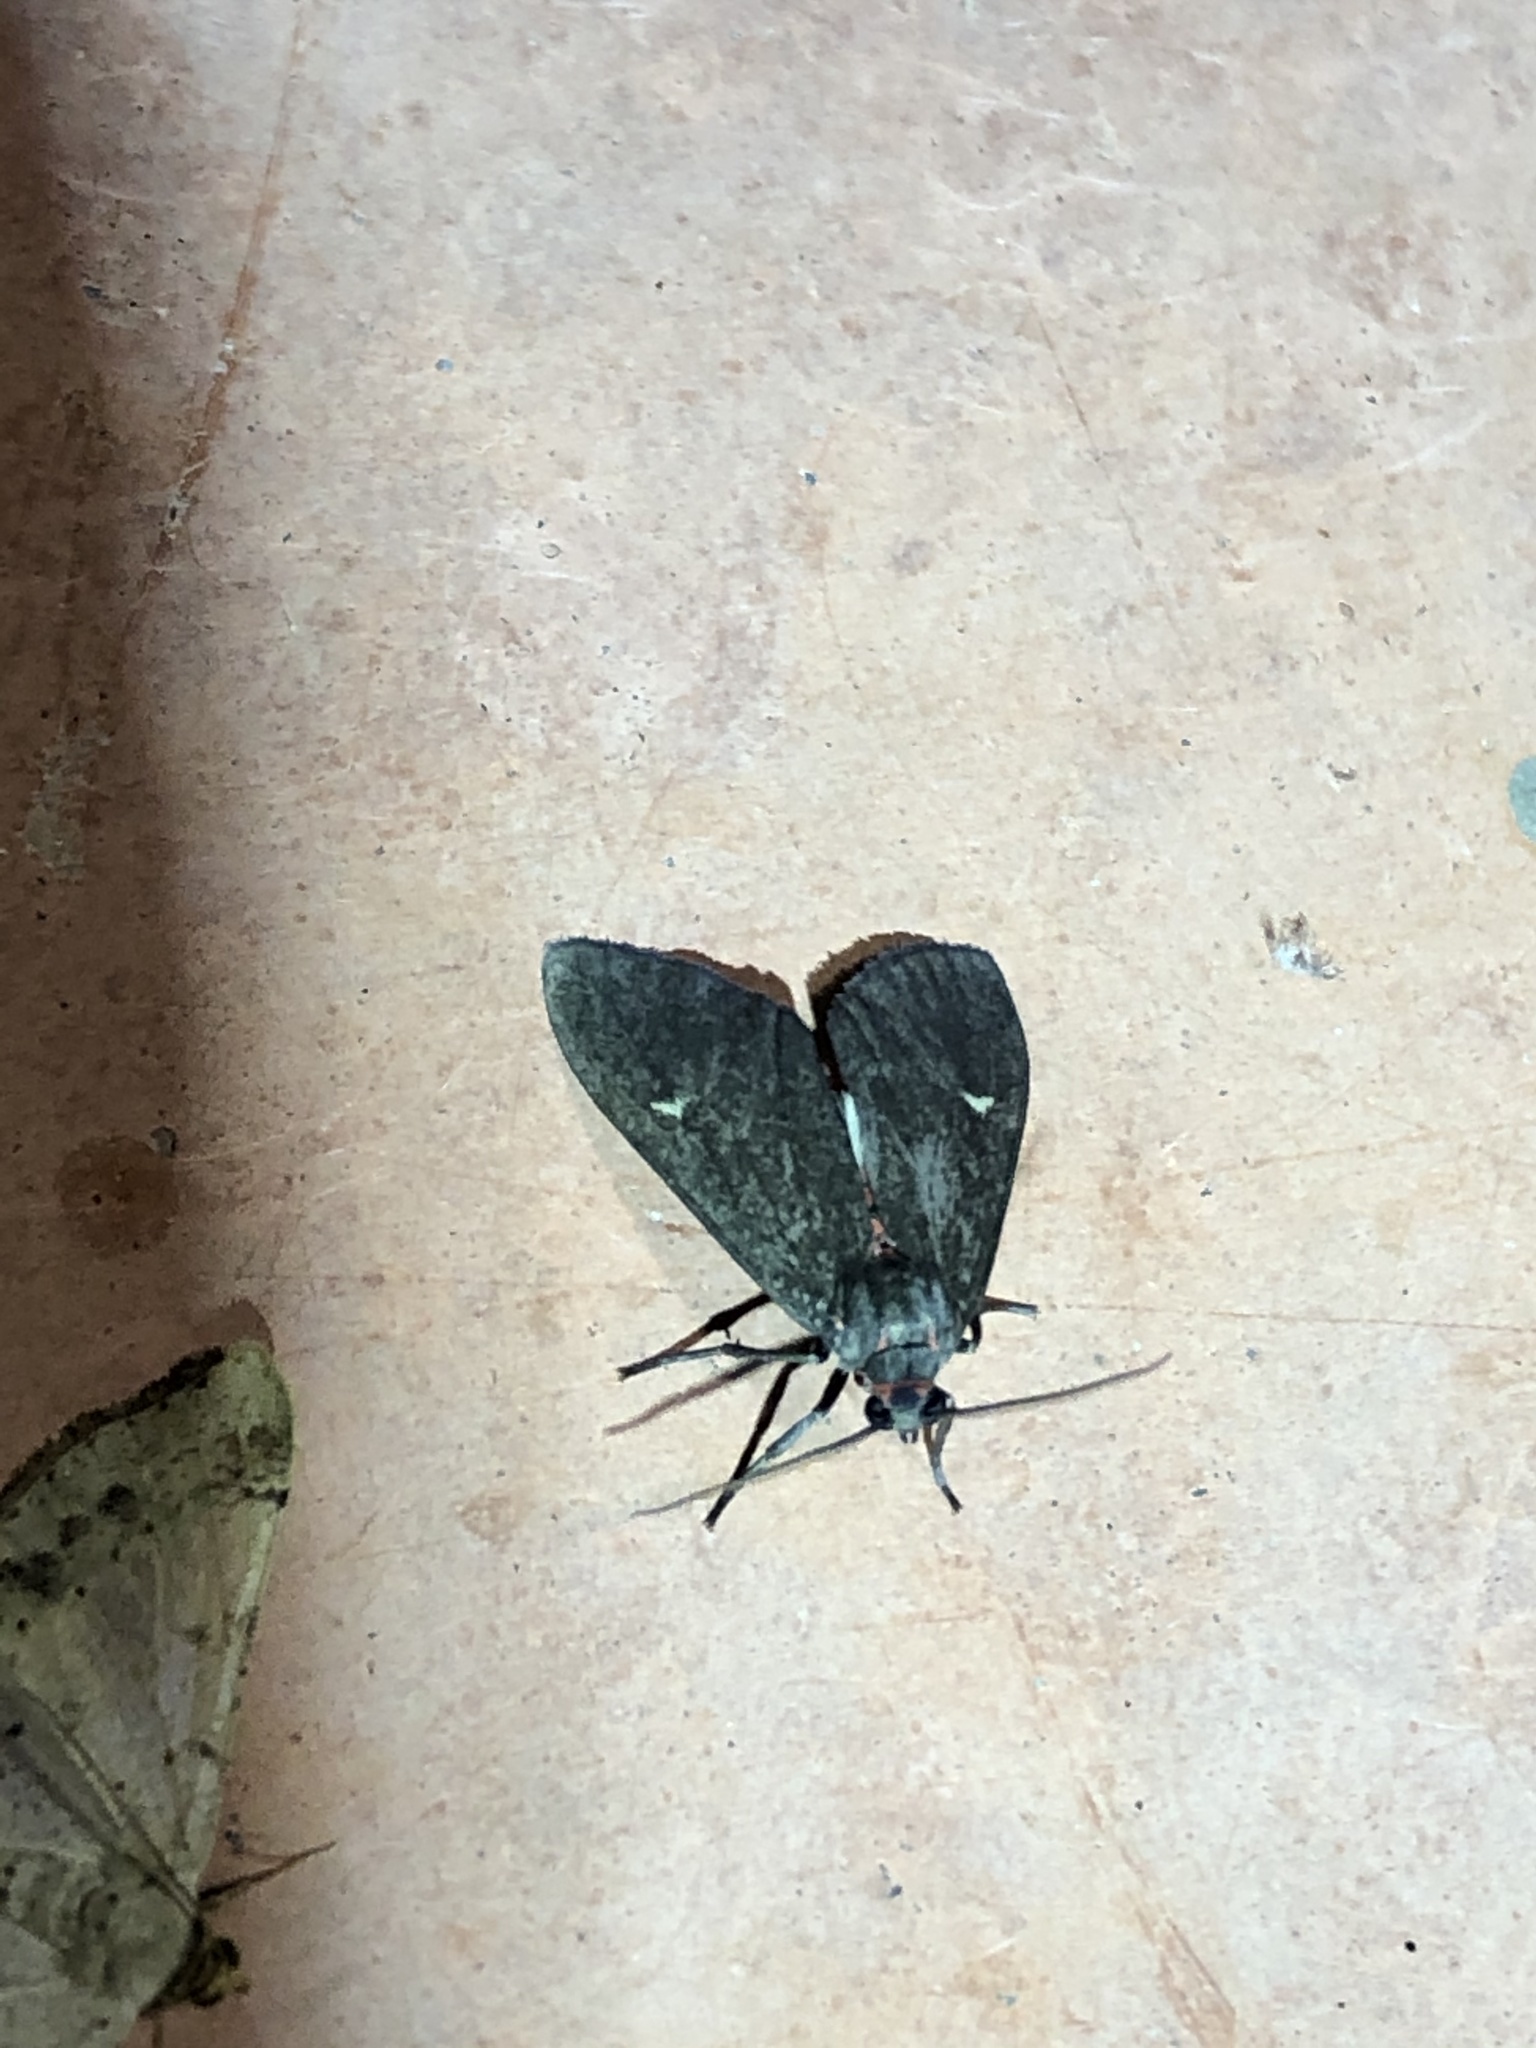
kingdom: Animalia
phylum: Arthropoda
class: Insecta
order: Lepidoptera
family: Erebidae
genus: Euchaetes
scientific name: Euchaetes zella
